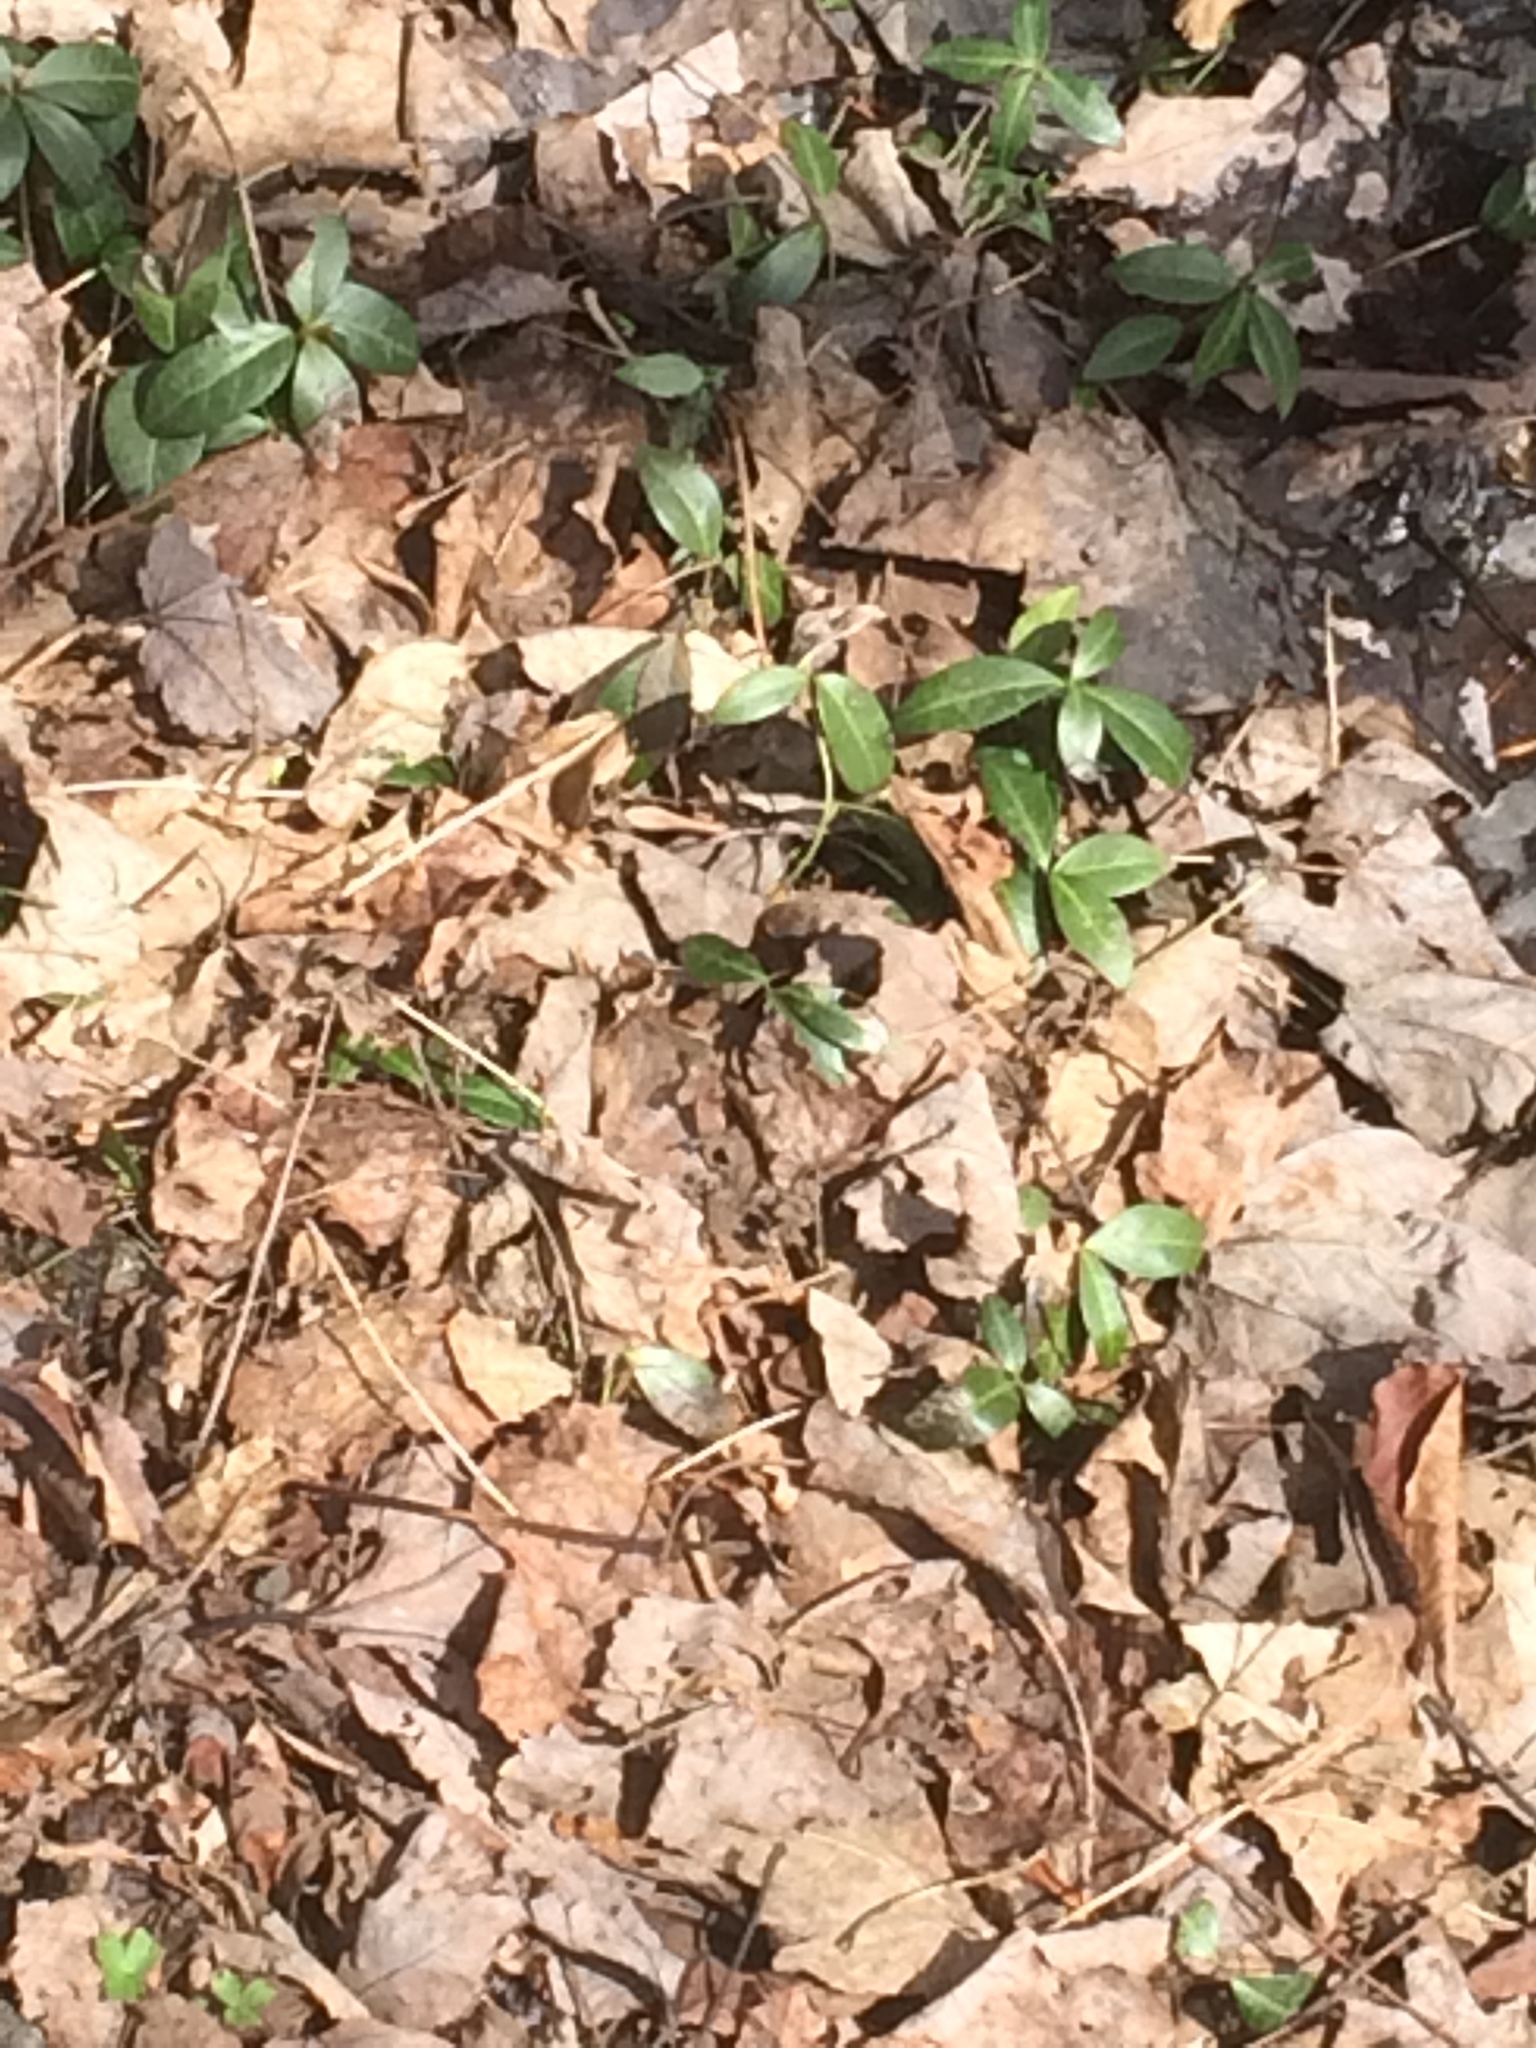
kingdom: Plantae
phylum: Tracheophyta
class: Magnoliopsida
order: Gentianales
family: Apocynaceae
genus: Vinca
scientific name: Vinca minor
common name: Lesser periwinkle
